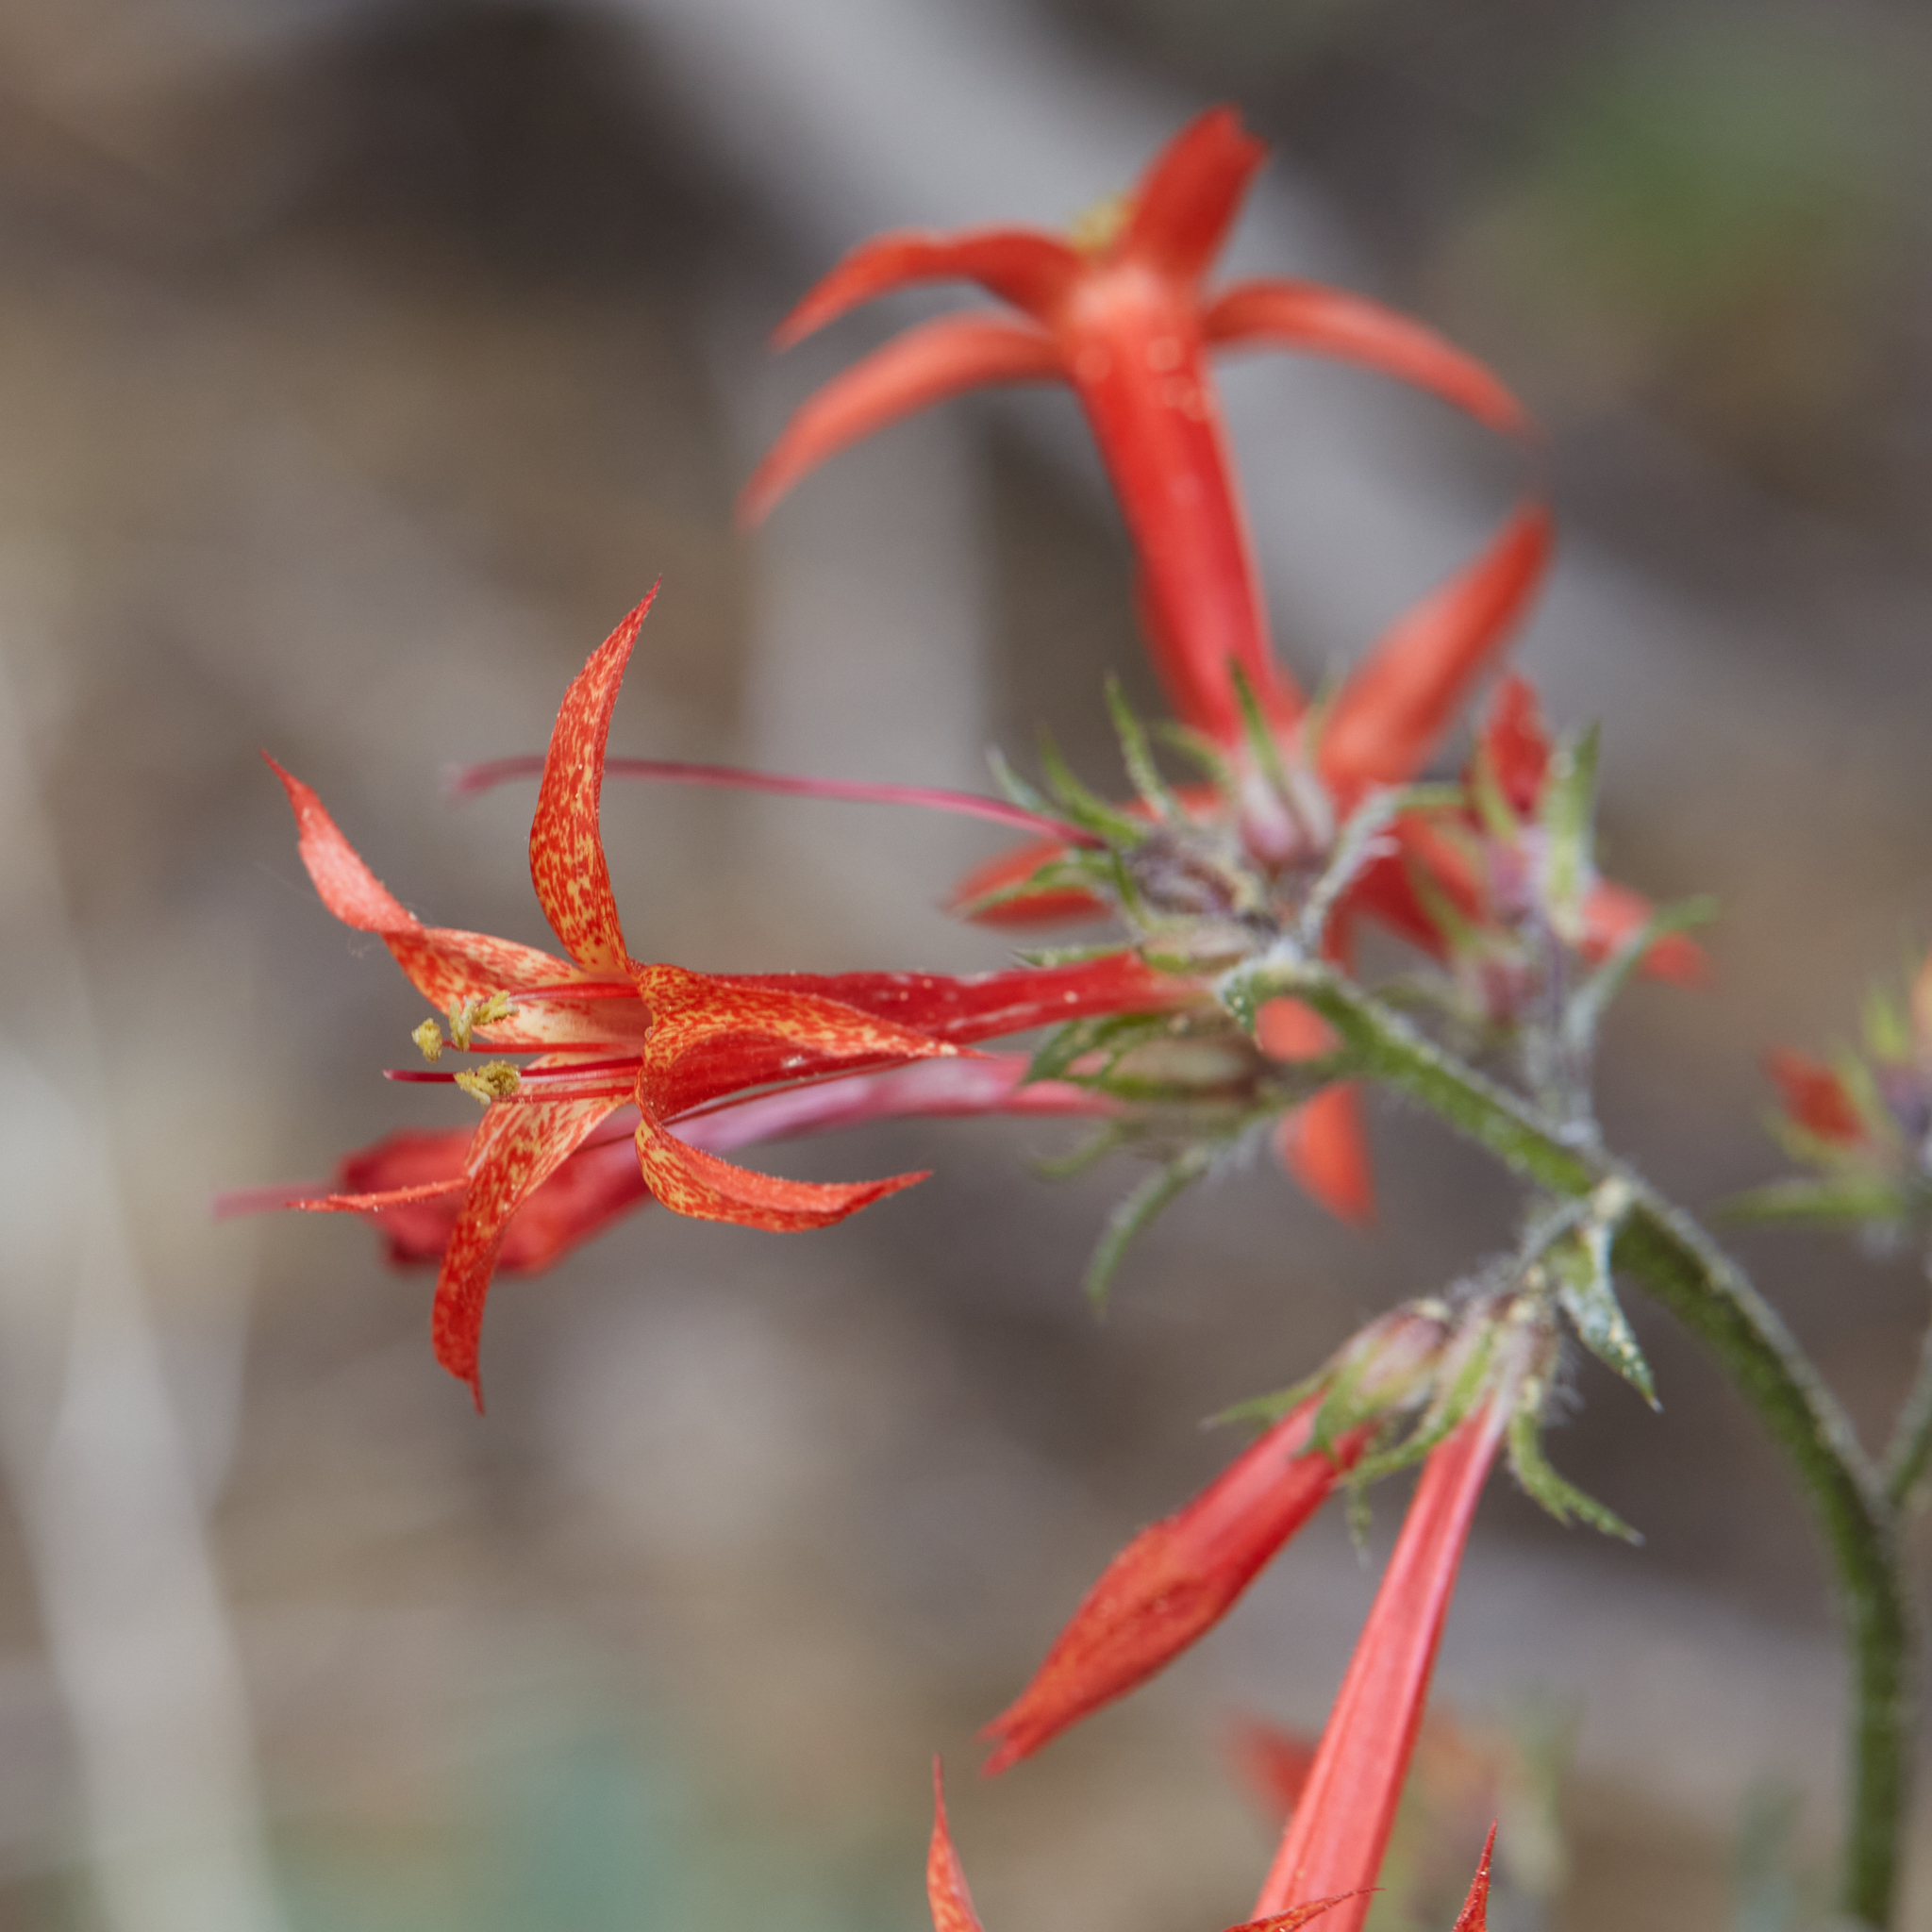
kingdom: Plantae
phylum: Tracheophyta
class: Magnoliopsida
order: Ericales
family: Polemoniaceae
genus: Ipomopsis
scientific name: Ipomopsis aggregata
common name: Scarlet gilia
